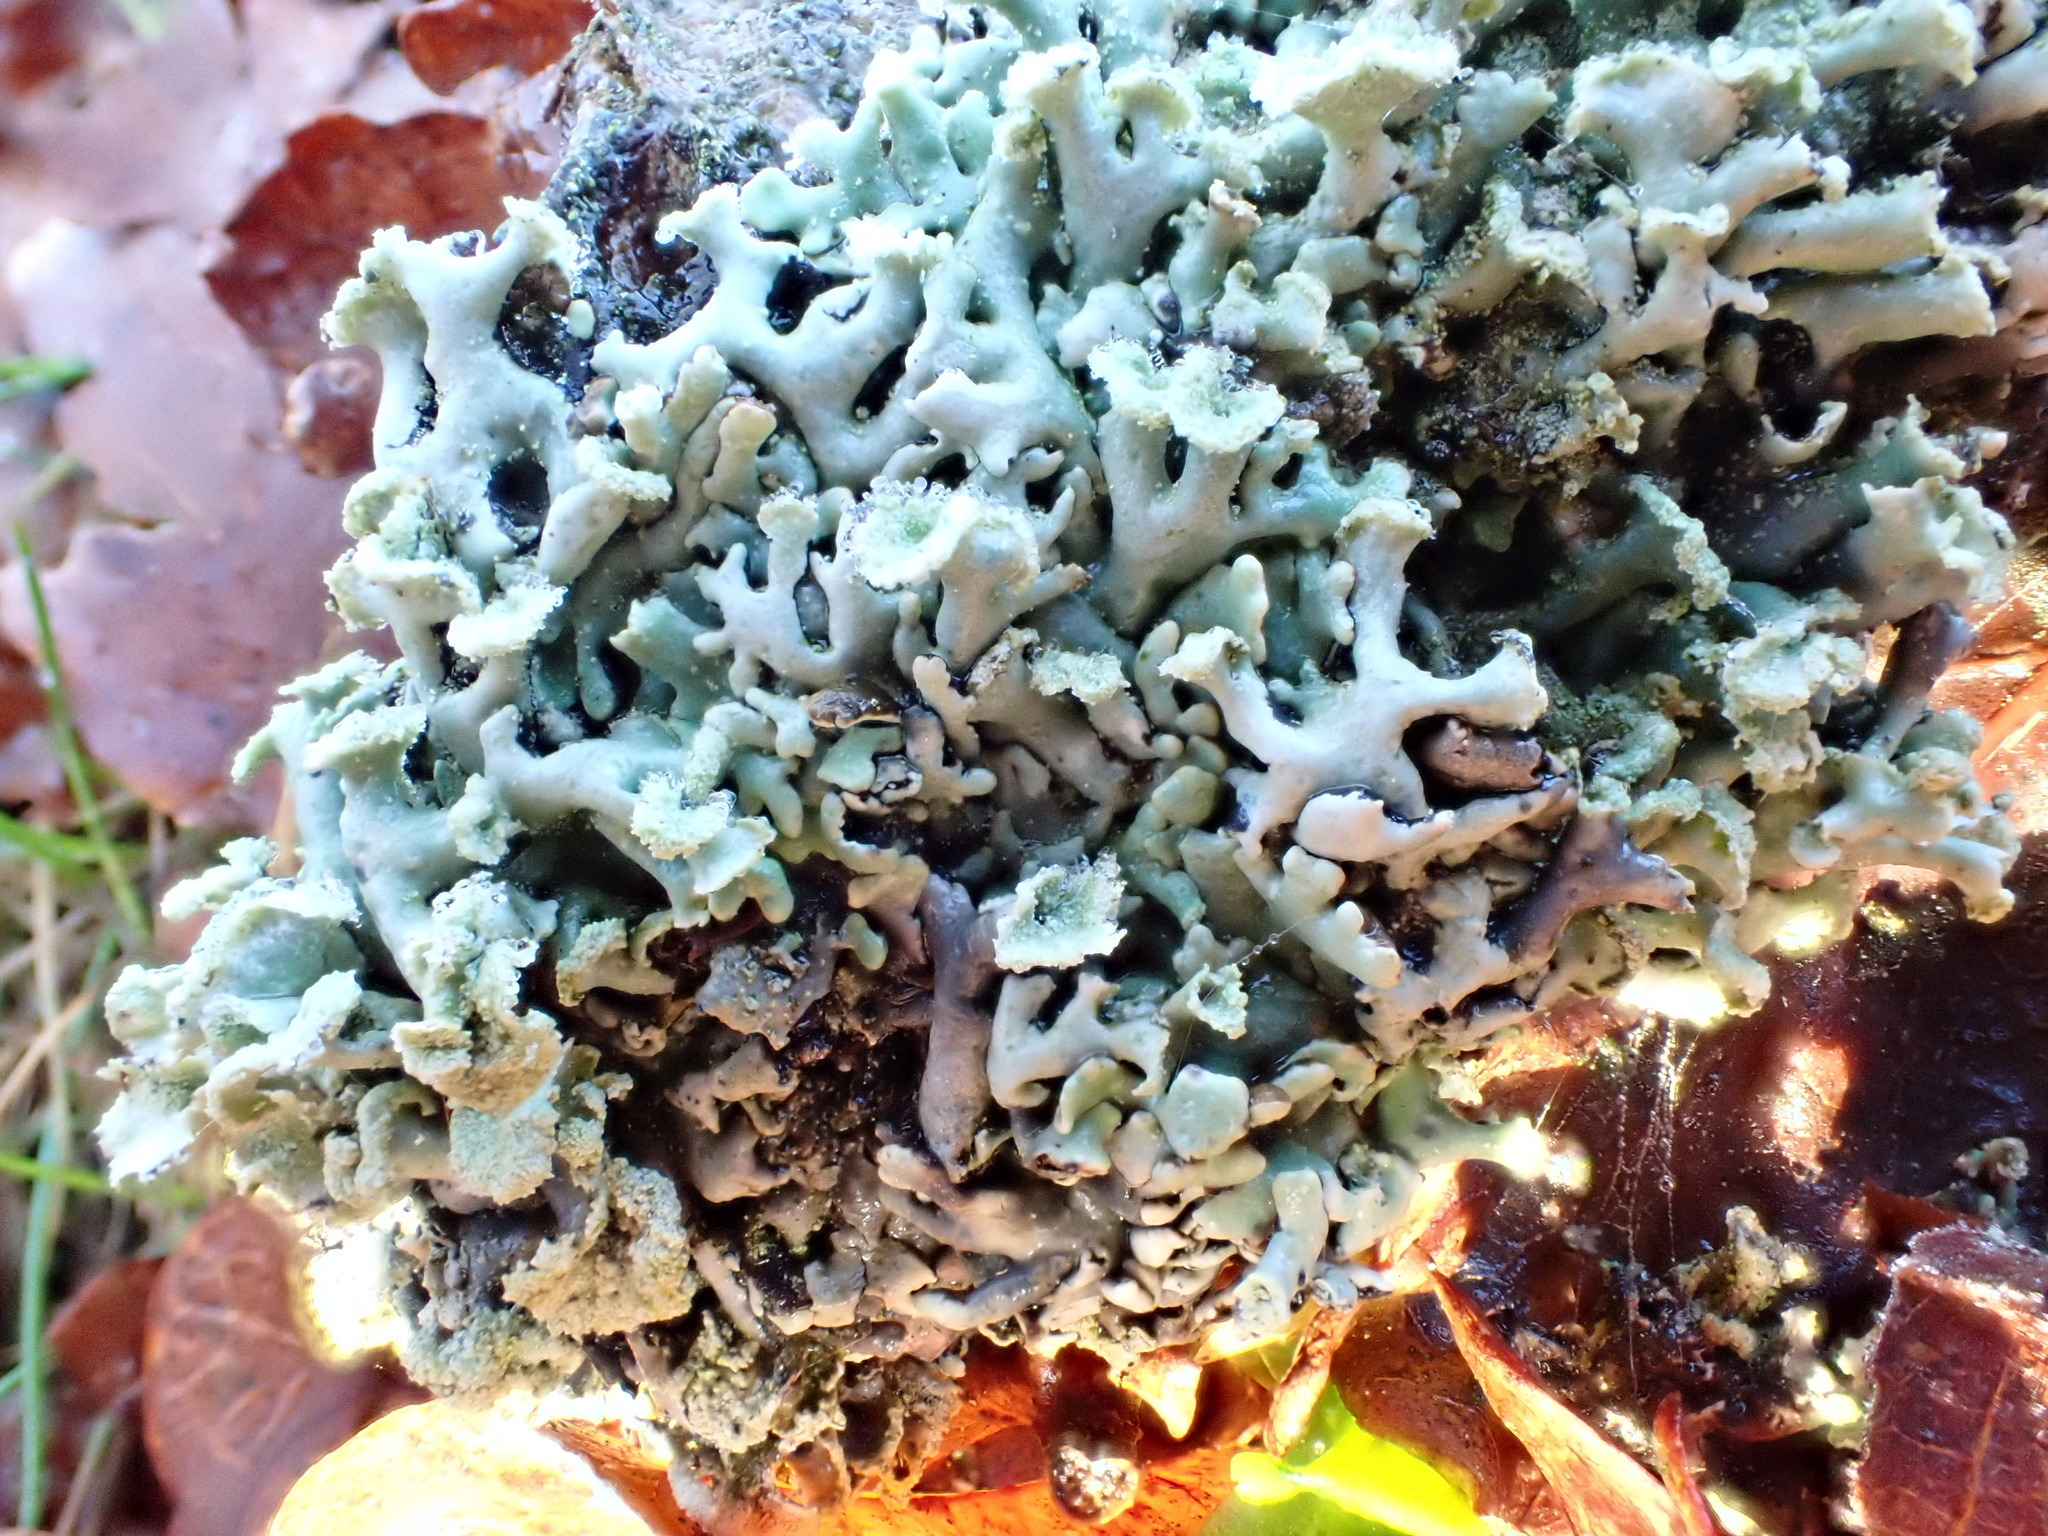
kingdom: Fungi
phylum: Ascomycota
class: Lecanoromycetes
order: Lecanorales
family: Parmeliaceae
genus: Hypogymnia
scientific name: Hypogymnia physodes
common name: Dark crottle
